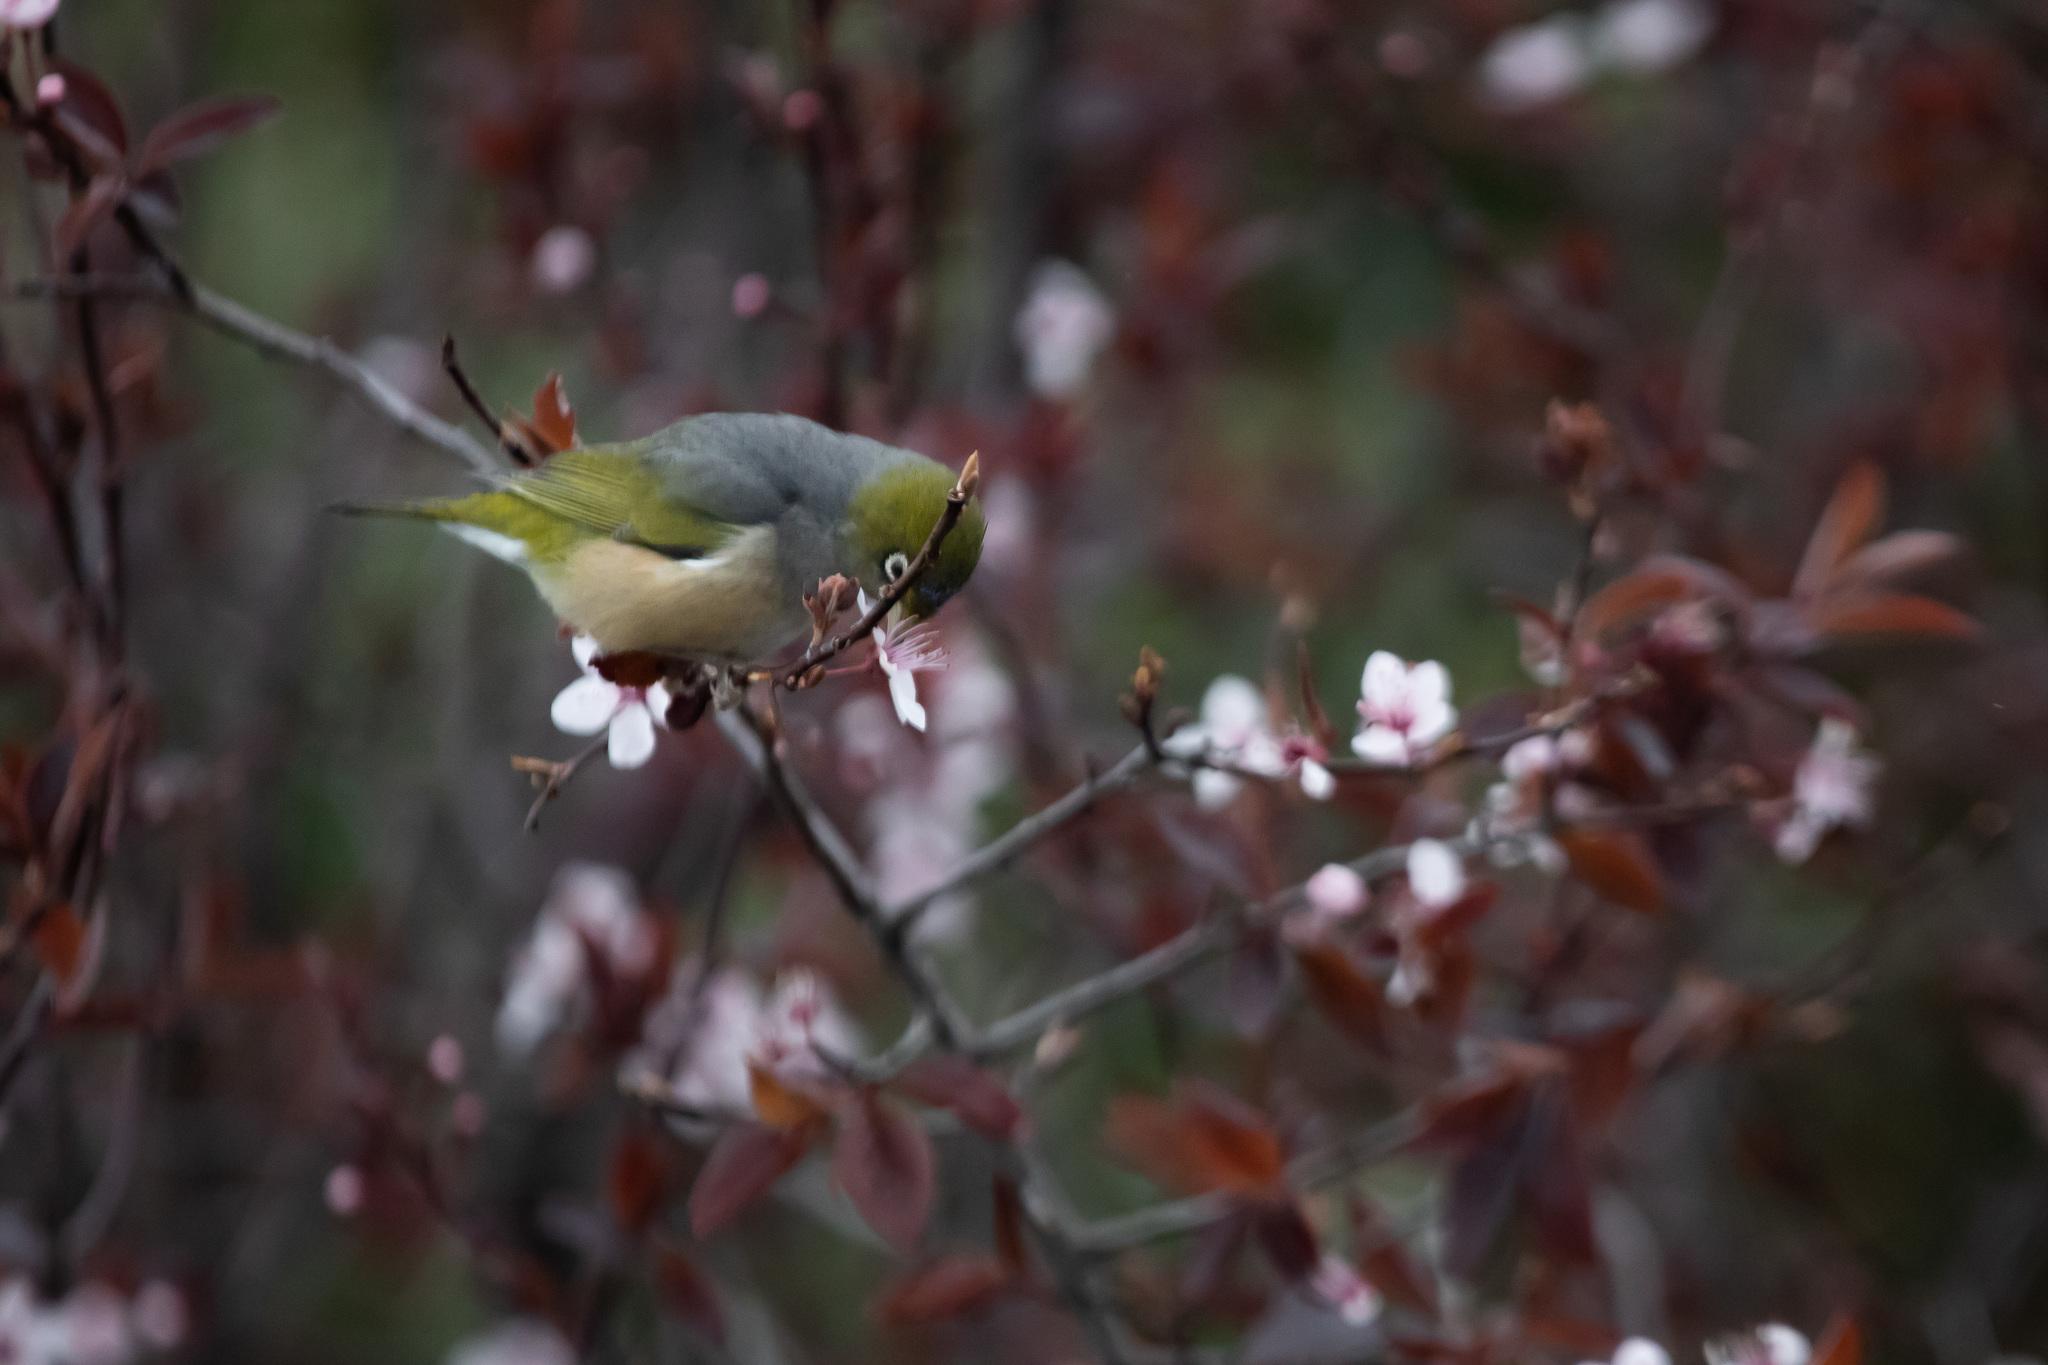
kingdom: Animalia
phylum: Chordata
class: Aves
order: Passeriformes
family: Zosteropidae
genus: Zosterops
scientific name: Zosterops lateralis
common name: Silvereye
